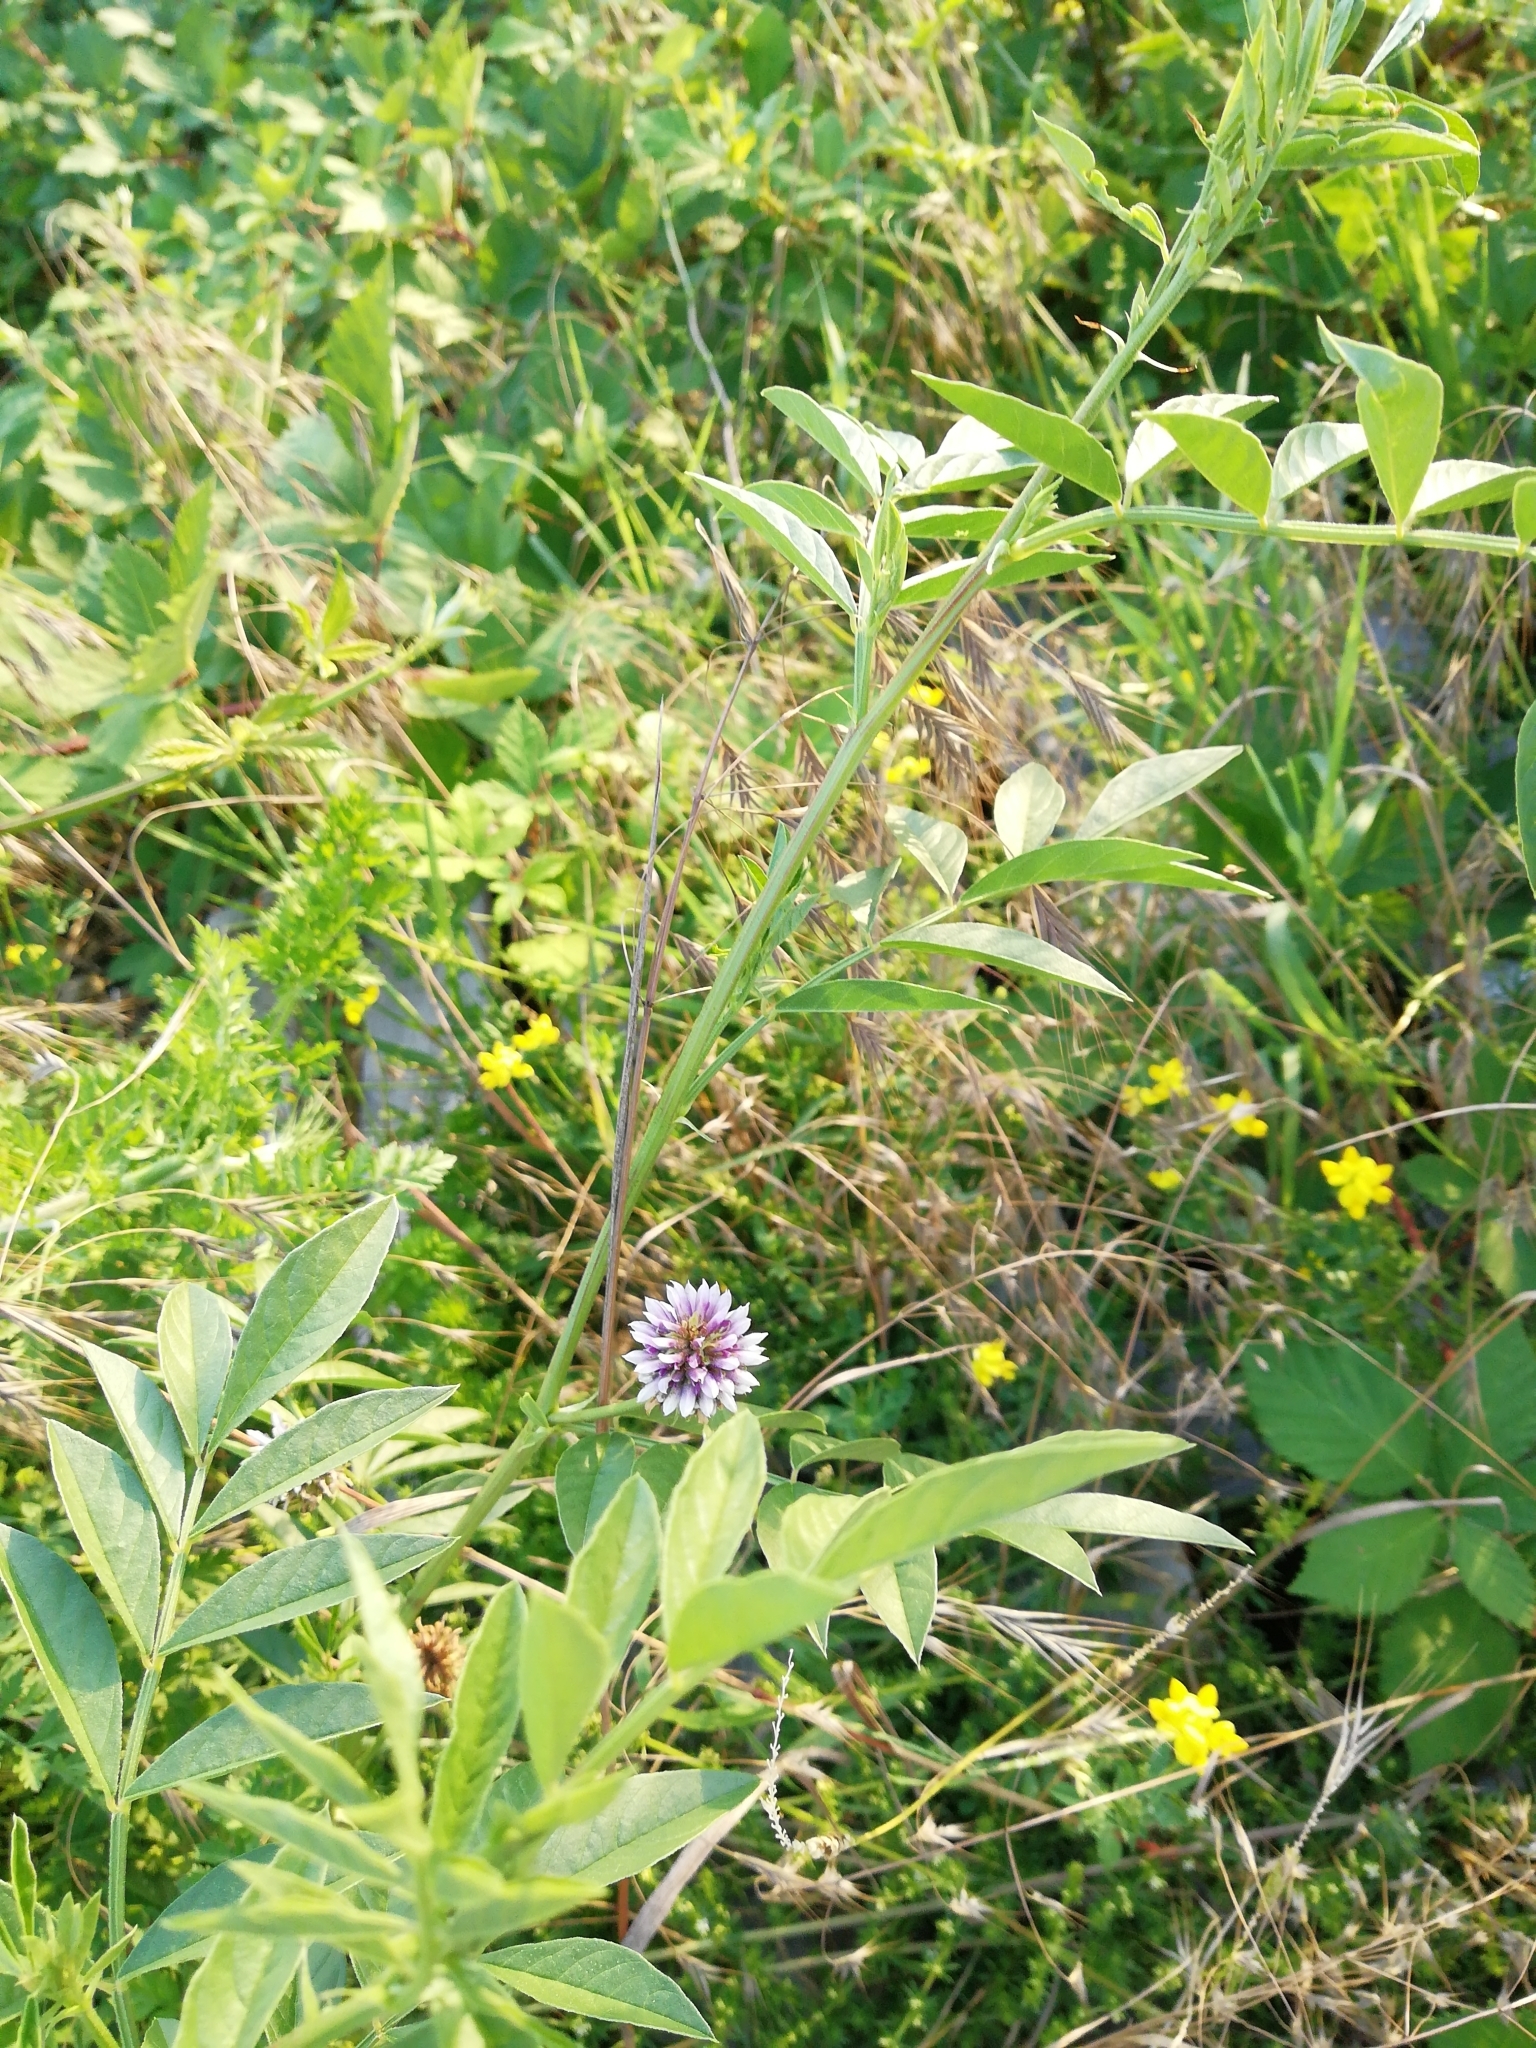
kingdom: Plantae
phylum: Tracheophyta
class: Magnoliopsida
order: Fabales
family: Fabaceae
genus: Glycyrrhiza
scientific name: Glycyrrhiza echinata
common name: German liquorice
